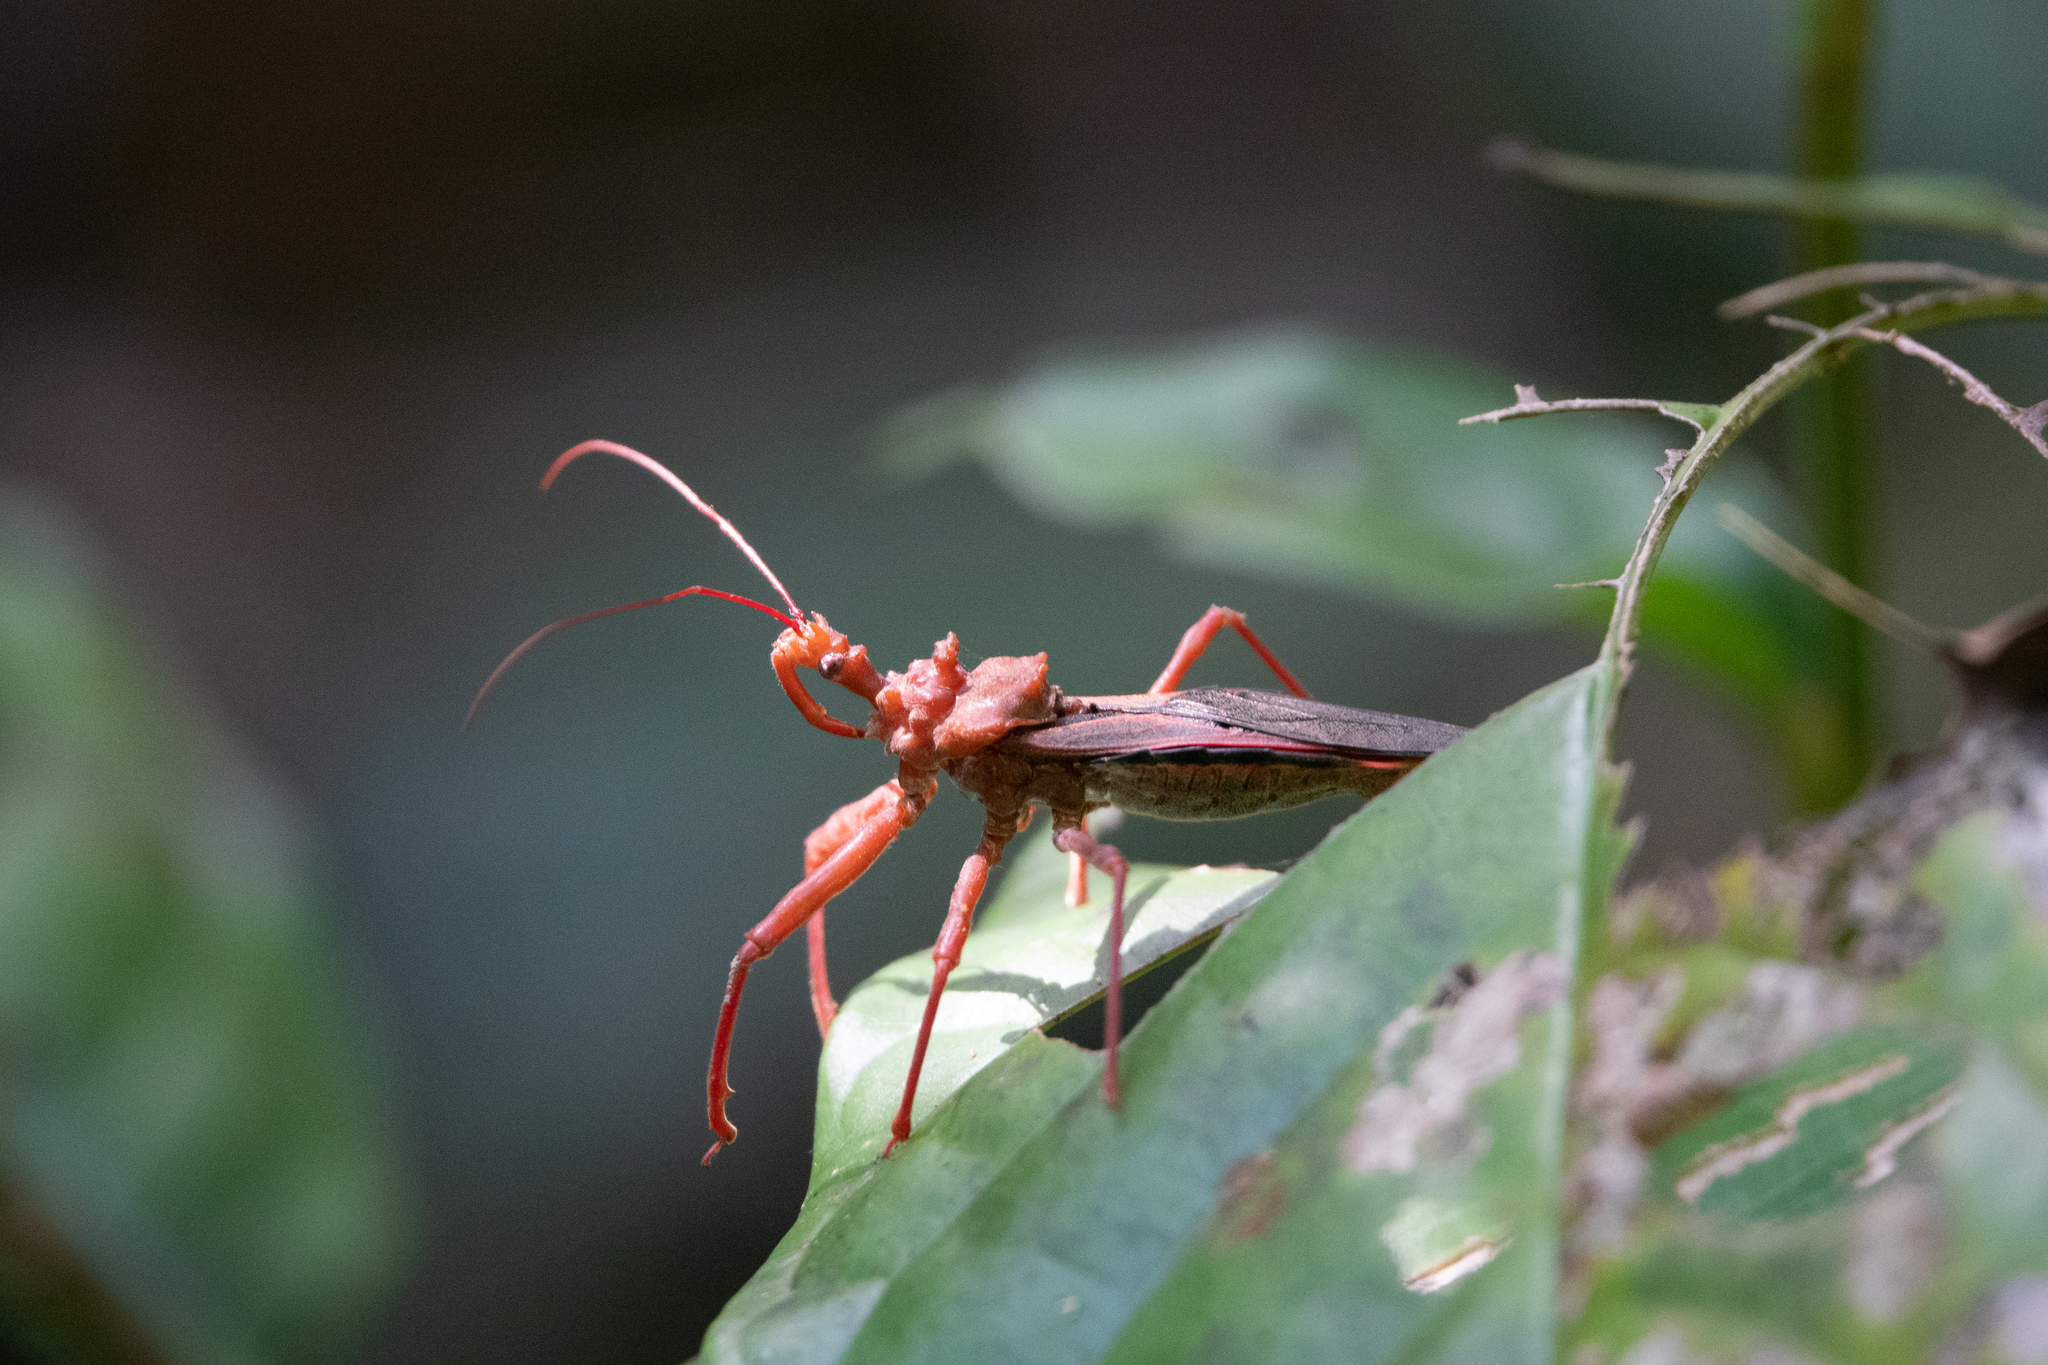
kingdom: Animalia
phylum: Arthropoda
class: Insecta
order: Hemiptera
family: Reduviidae
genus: Erbessus
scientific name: Erbessus grossus
